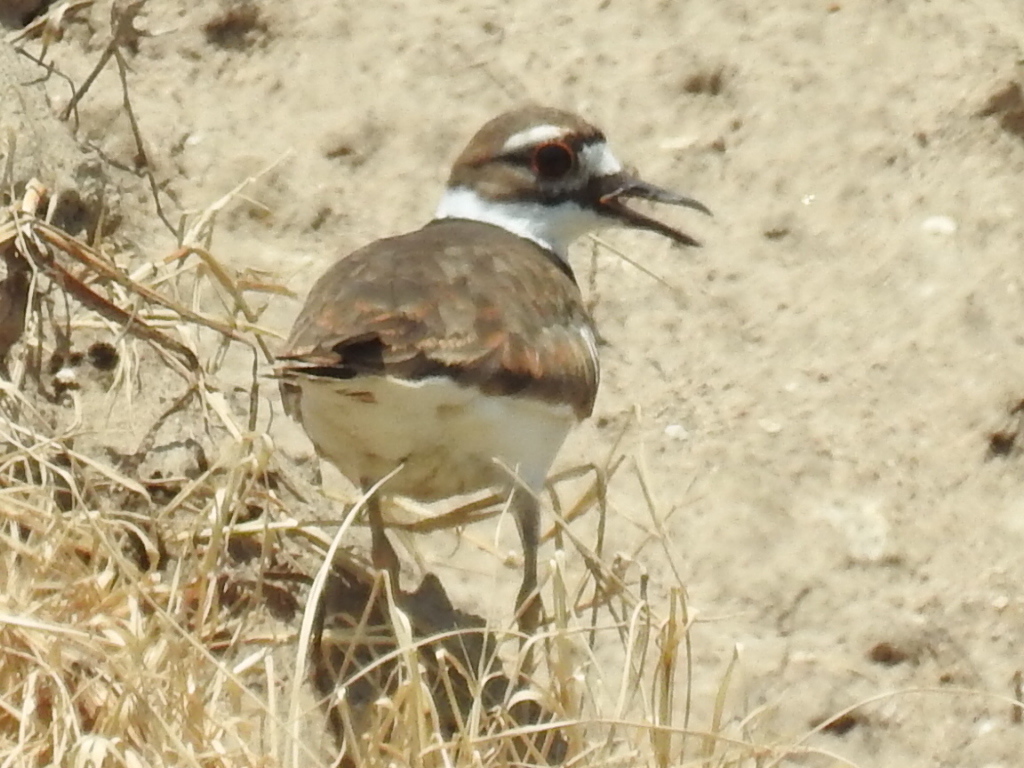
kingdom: Animalia
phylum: Chordata
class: Aves
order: Charadriiformes
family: Charadriidae
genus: Charadrius
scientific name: Charadrius vociferus
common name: Killdeer
